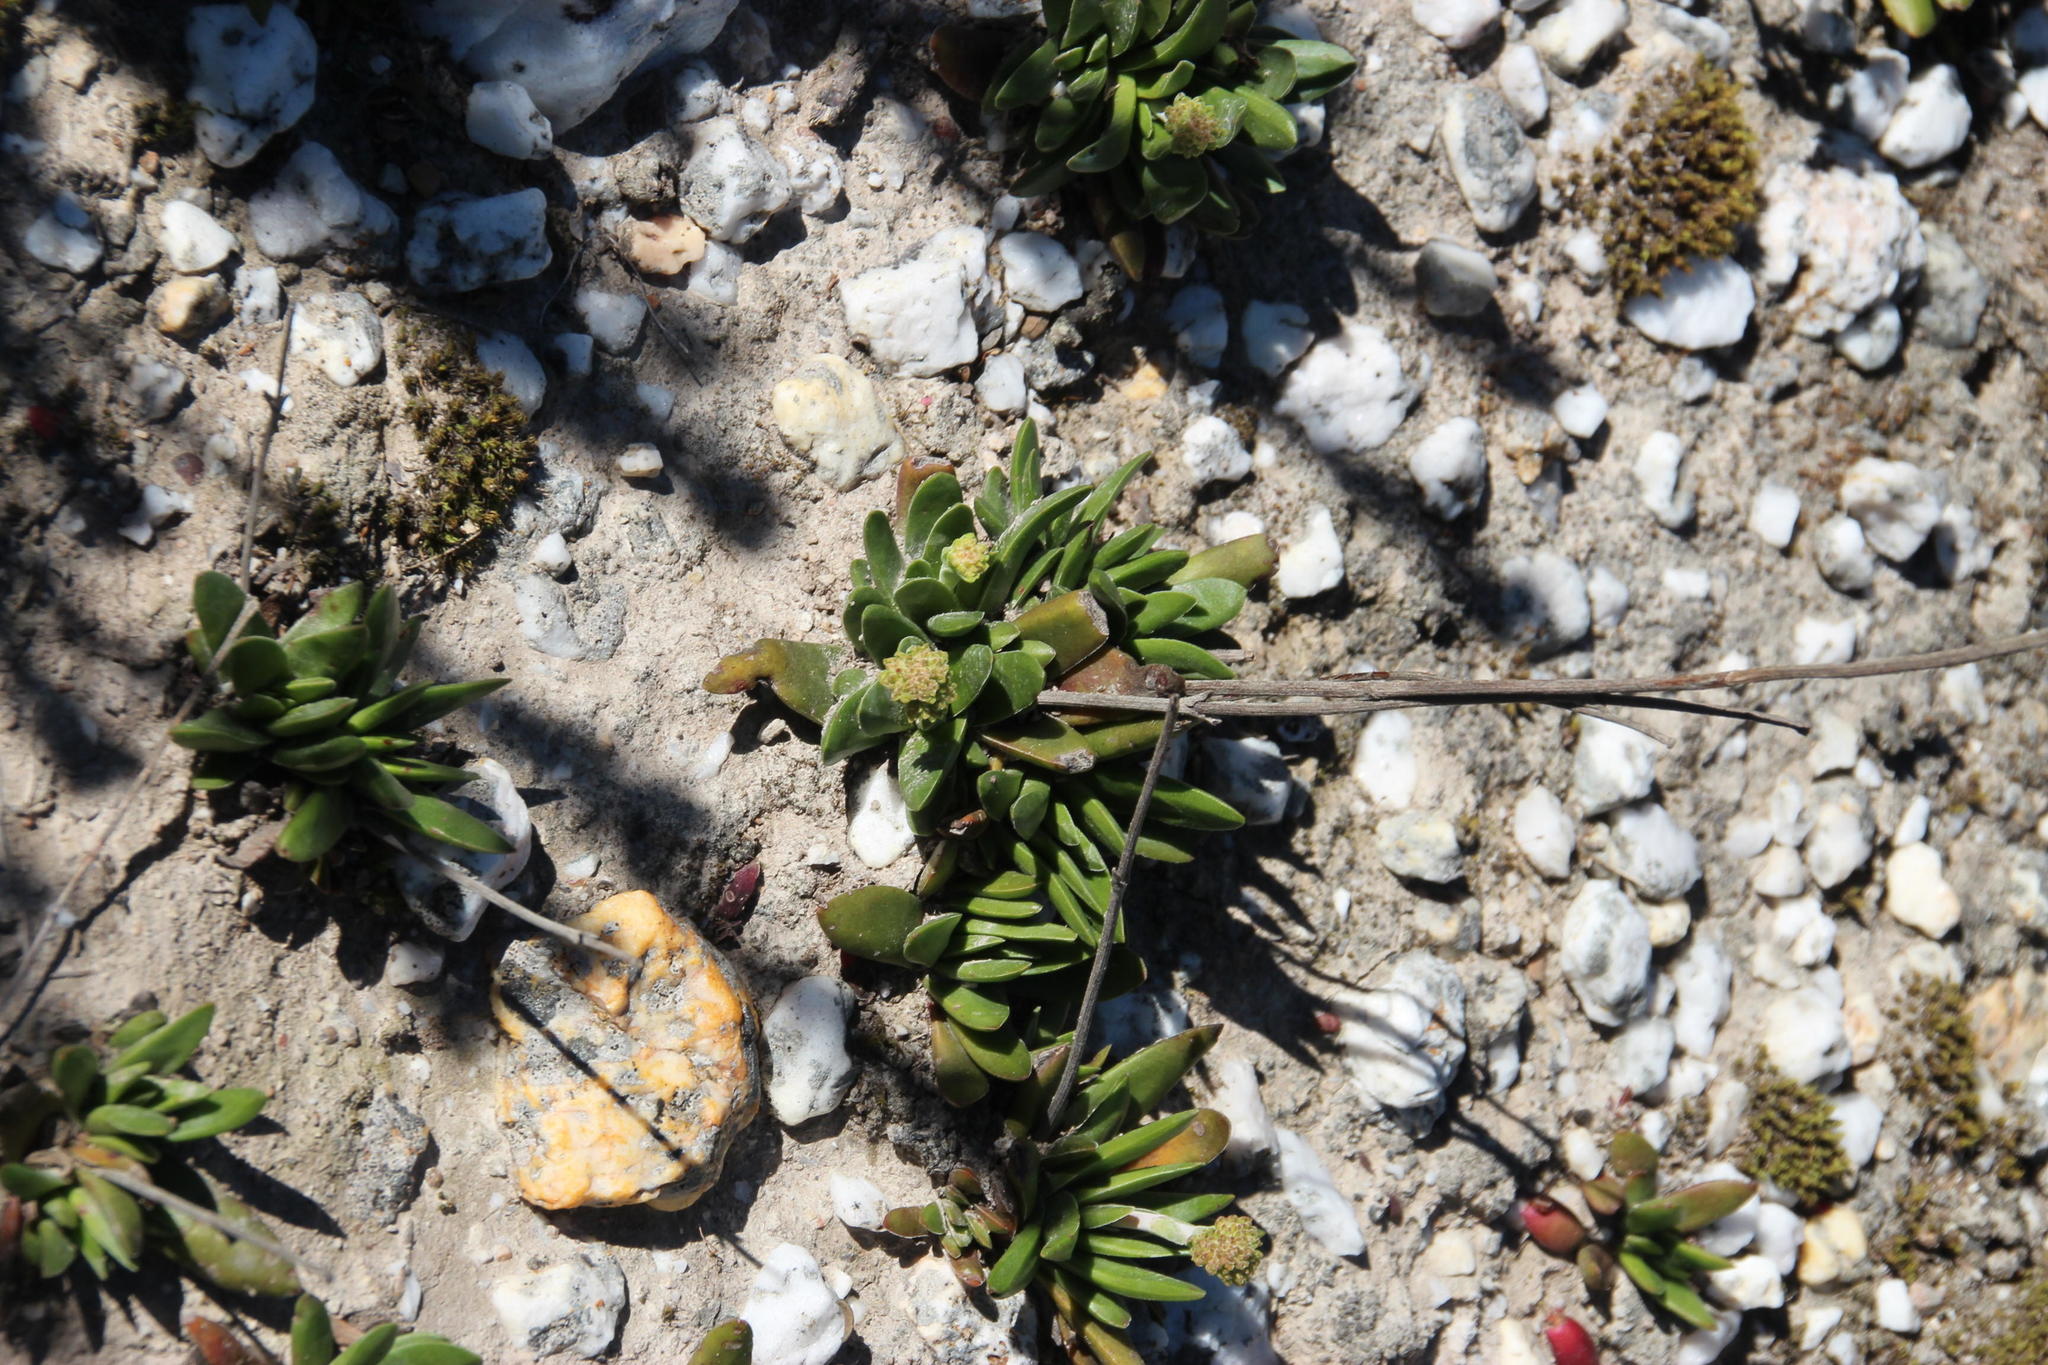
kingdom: Plantae
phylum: Tracheophyta
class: Magnoliopsida
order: Saxifragales
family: Crassulaceae
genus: Crassula
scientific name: Crassula nudicaulis
